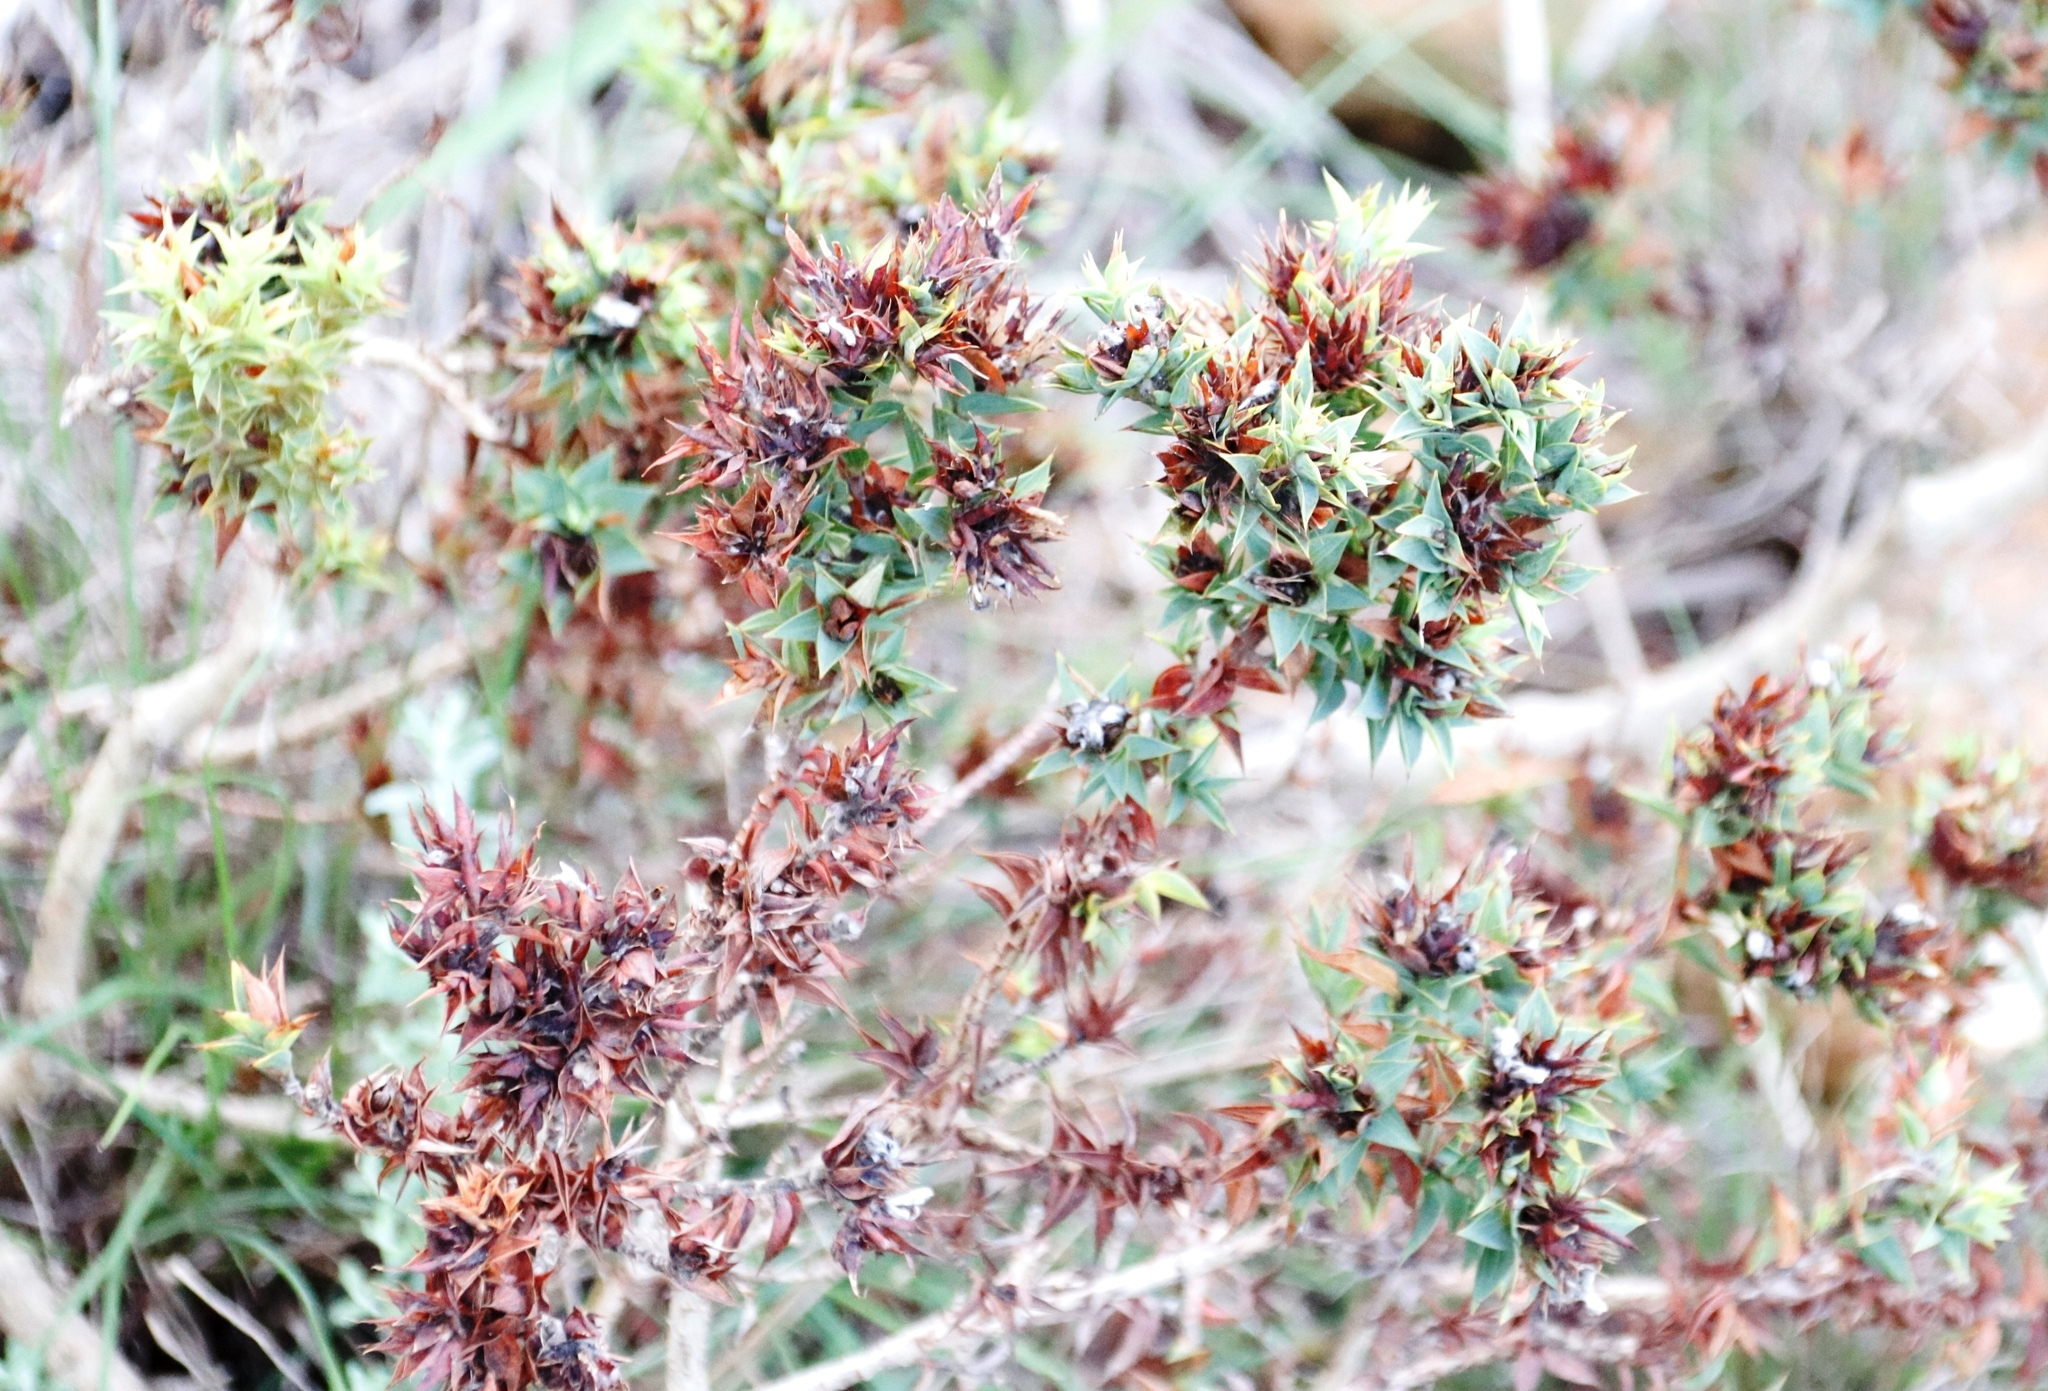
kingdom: Plantae
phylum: Tracheophyta
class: Magnoliopsida
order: Fabales
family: Fabaceae
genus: Aspalathus
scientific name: Aspalathus cordata
